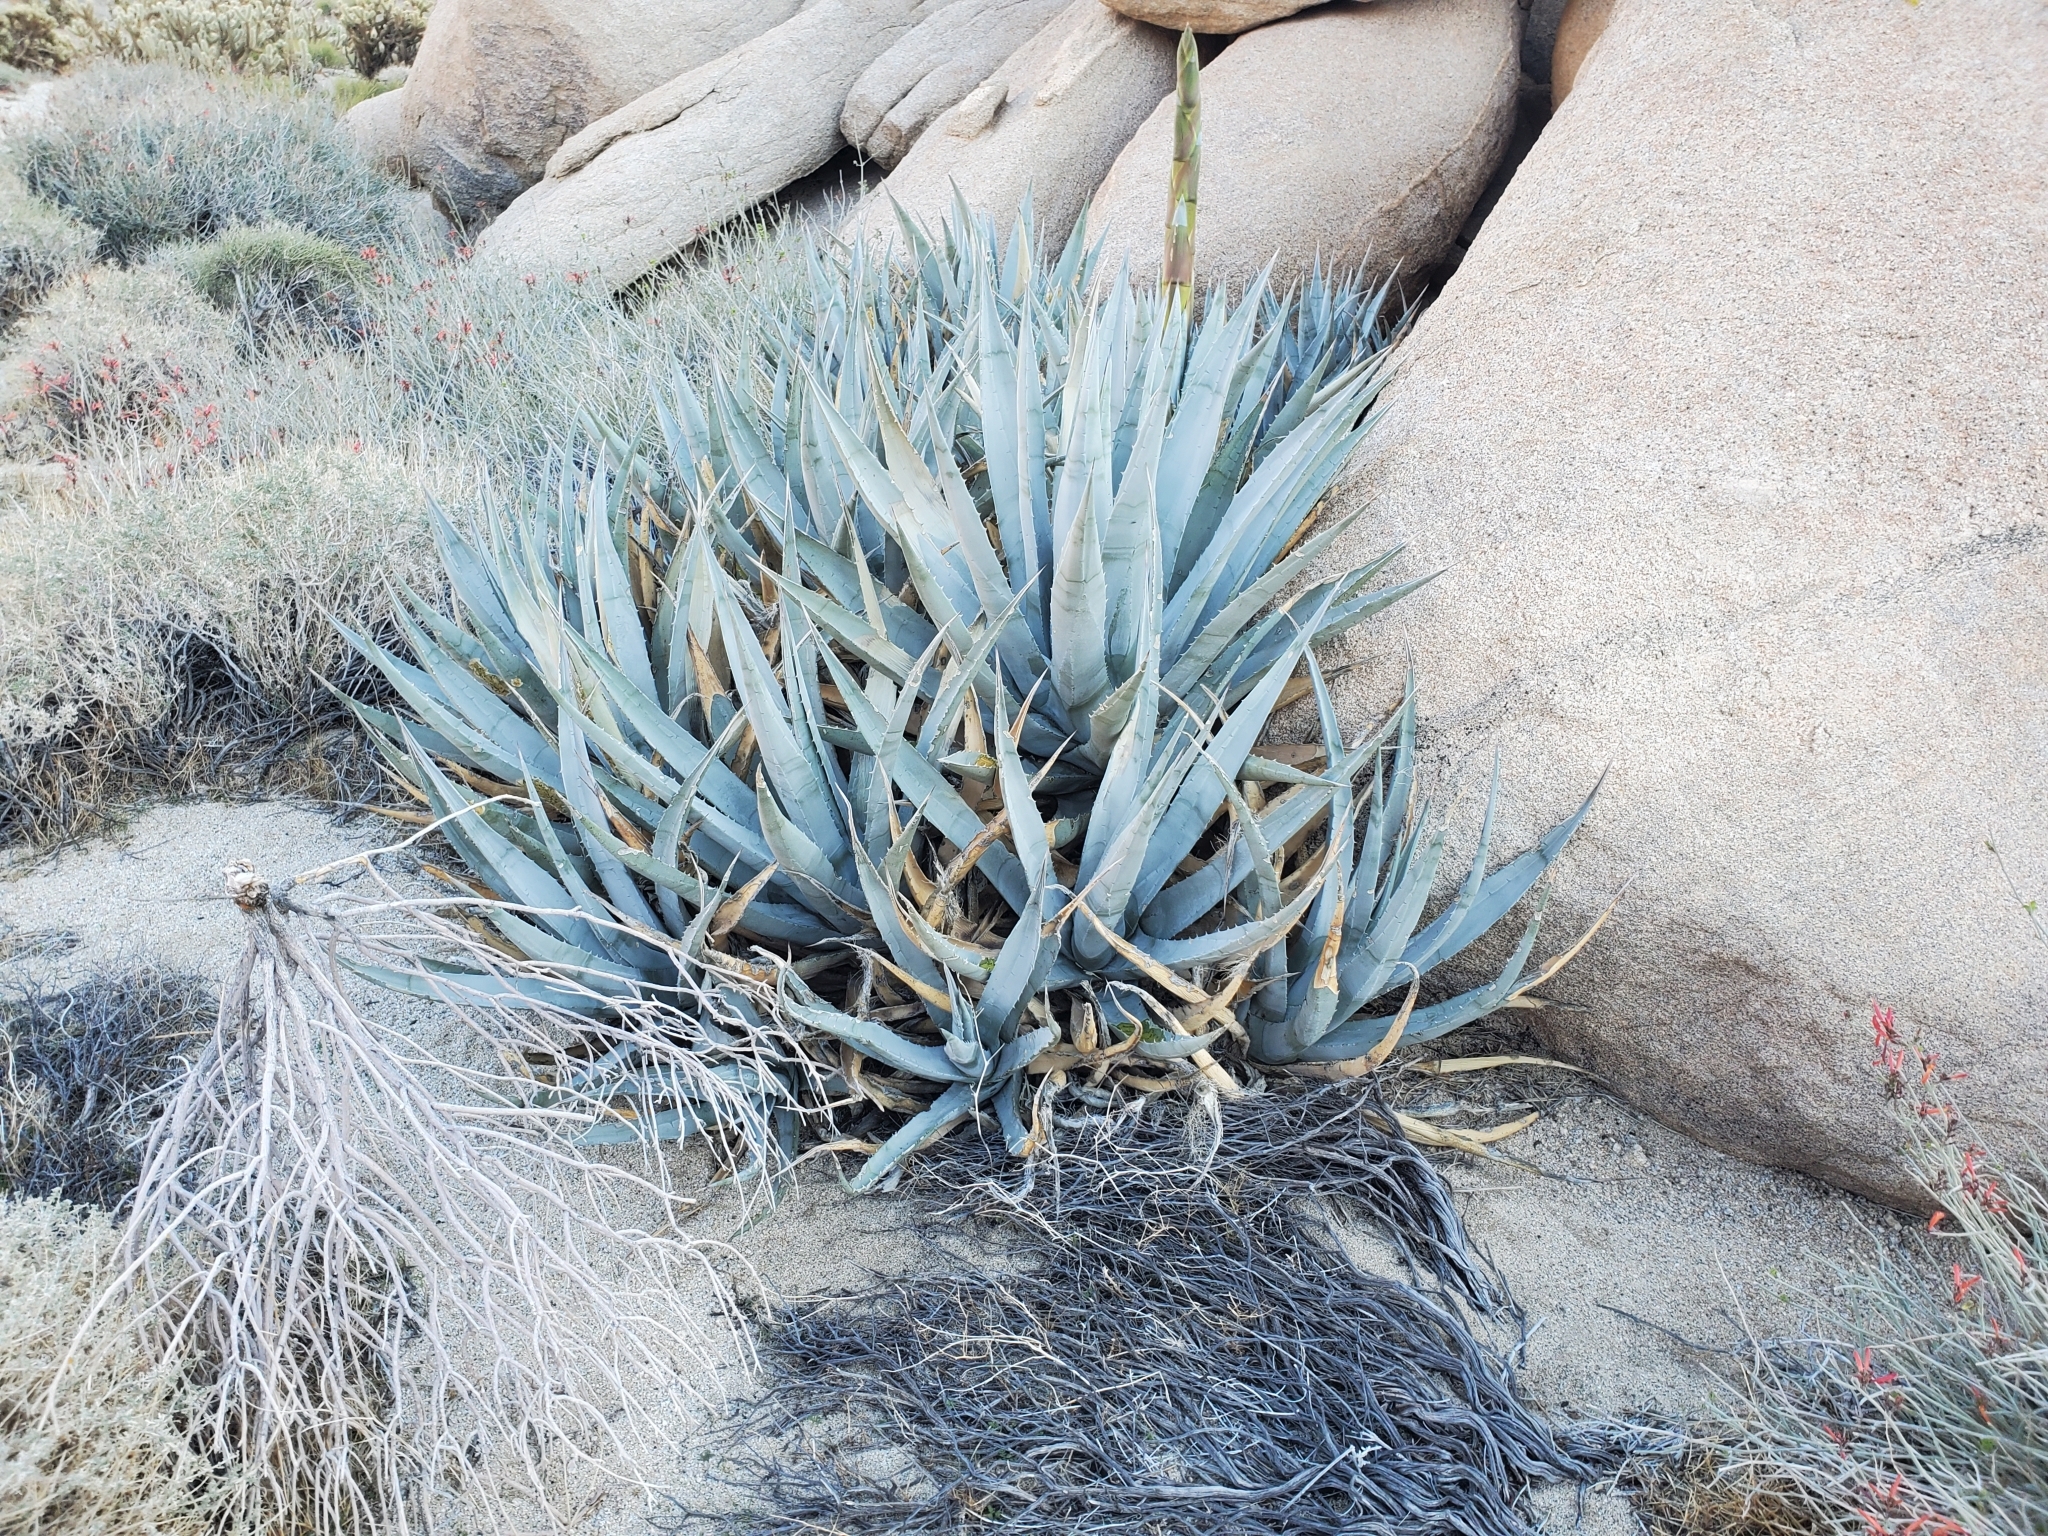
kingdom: Plantae
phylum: Tracheophyta
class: Liliopsida
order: Asparagales
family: Asparagaceae
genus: Agave
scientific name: Agave deserti
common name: Desert agave
